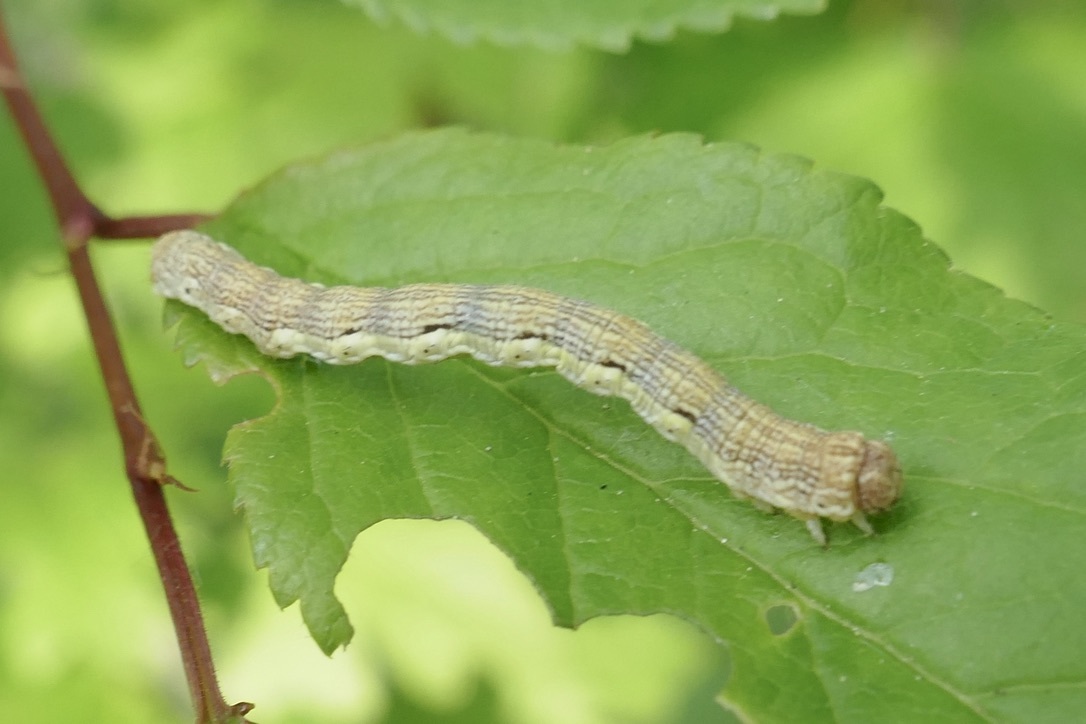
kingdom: Animalia
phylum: Arthropoda
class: Insecta
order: Lepidoptera
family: Geometridae
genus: Erannis
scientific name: Erannis defoliaria
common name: Mottled umber
